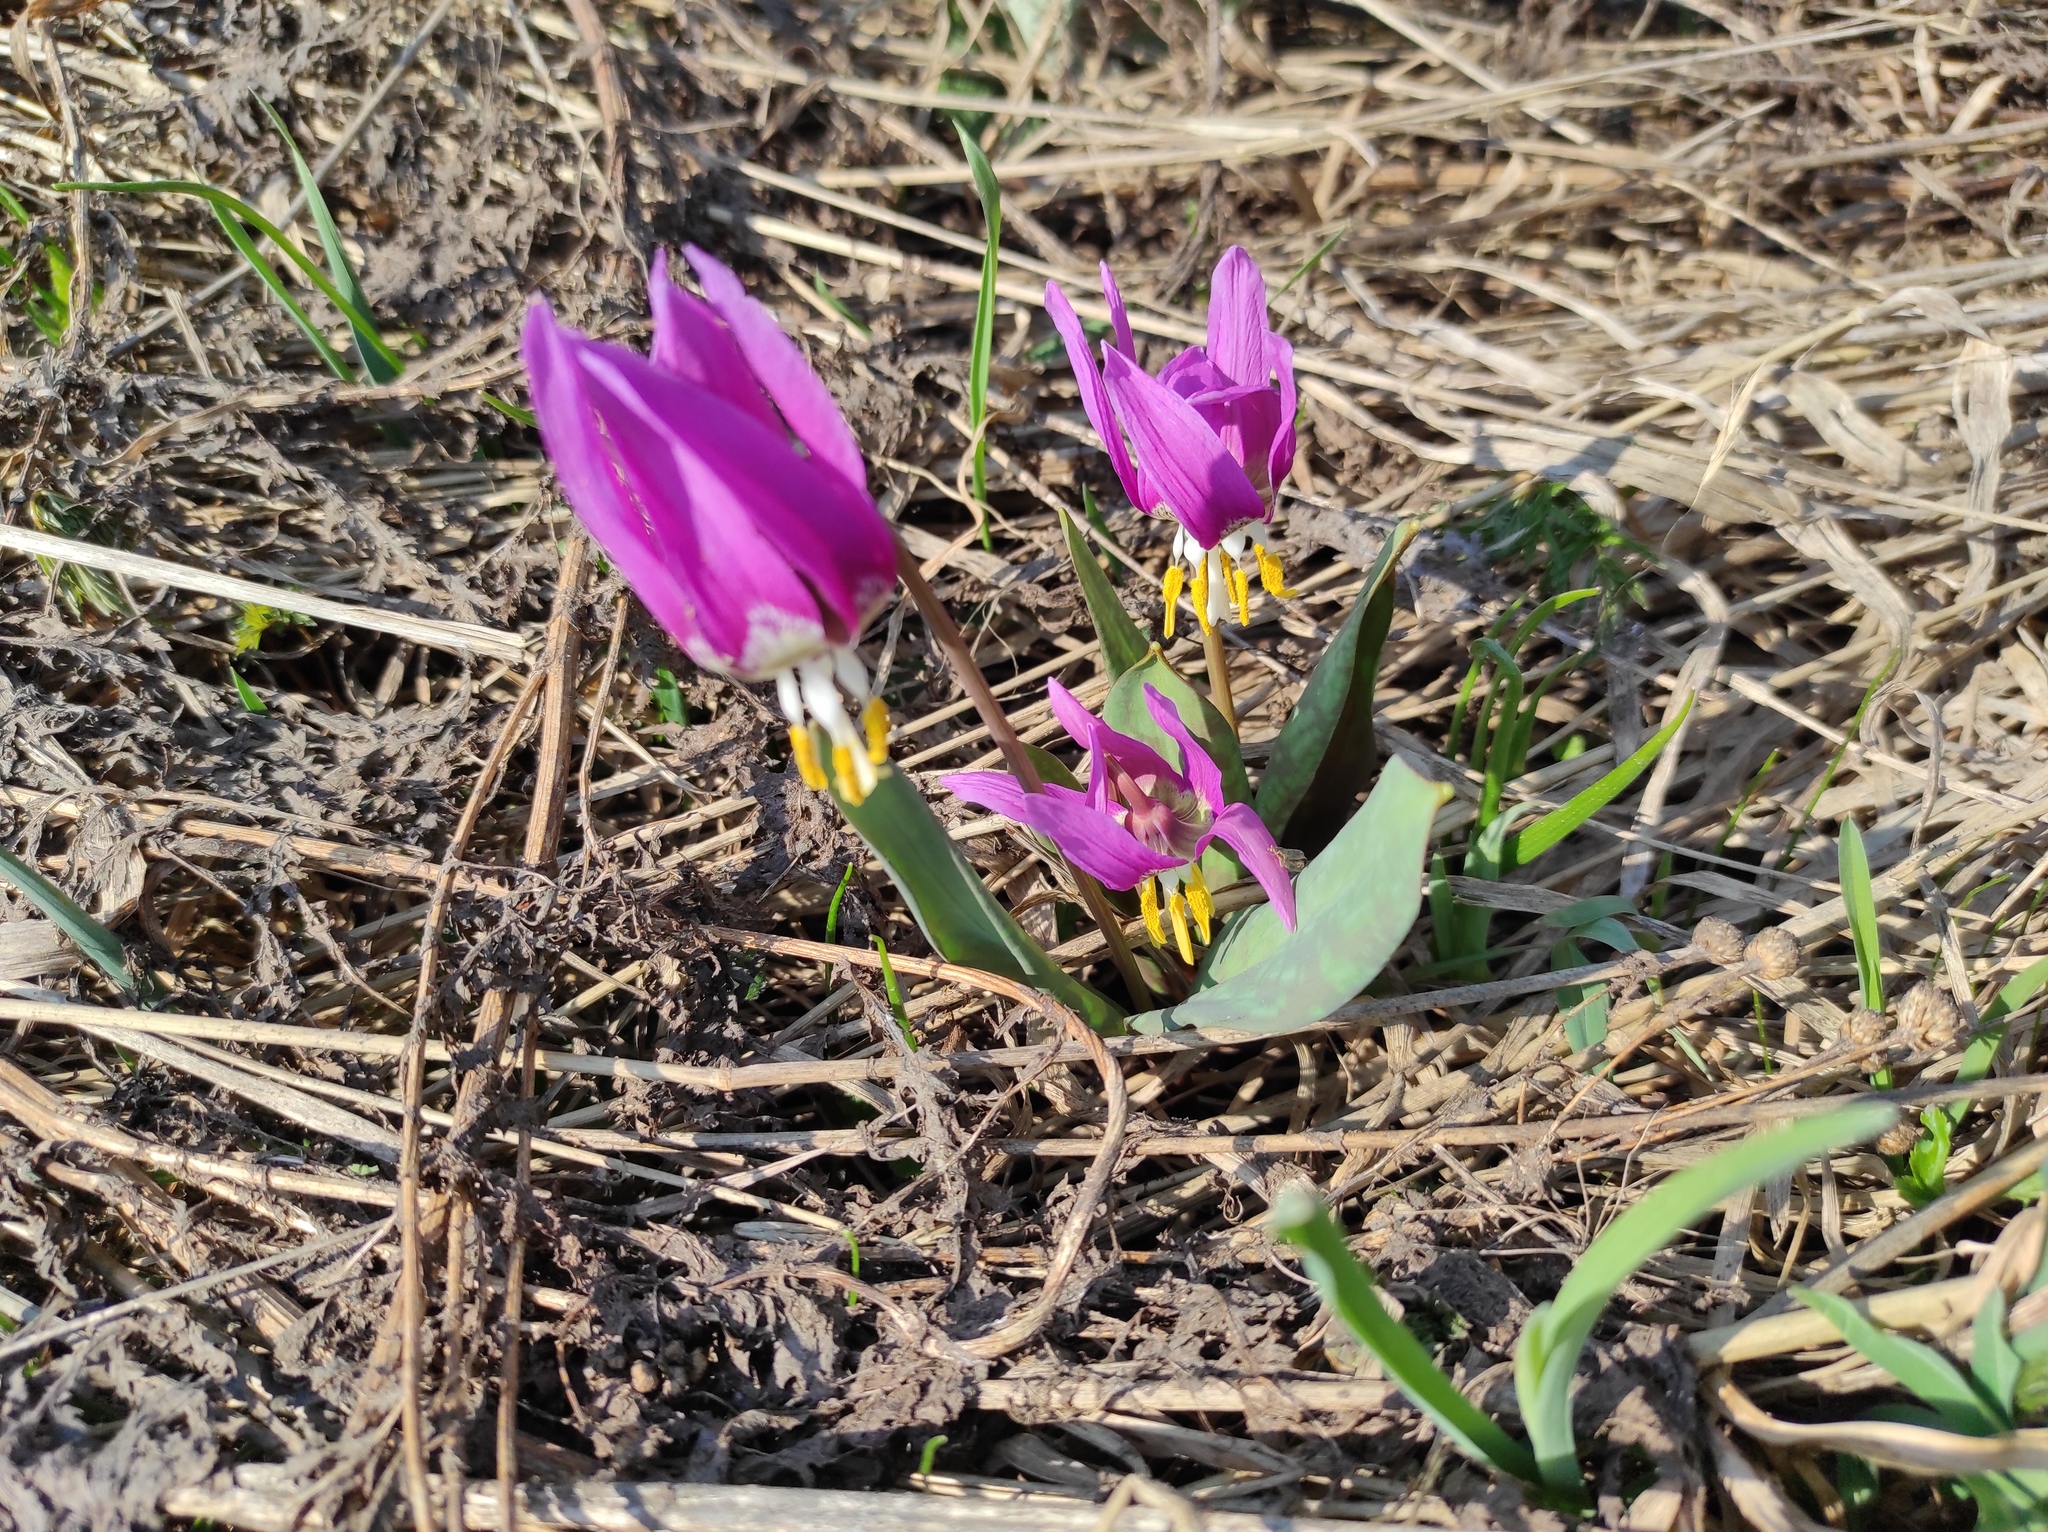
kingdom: Plantae
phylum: Tracheophyta
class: Liliopsida
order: Liliales
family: Liliaceae
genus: Erythronium
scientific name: Erythronium sibiricum
